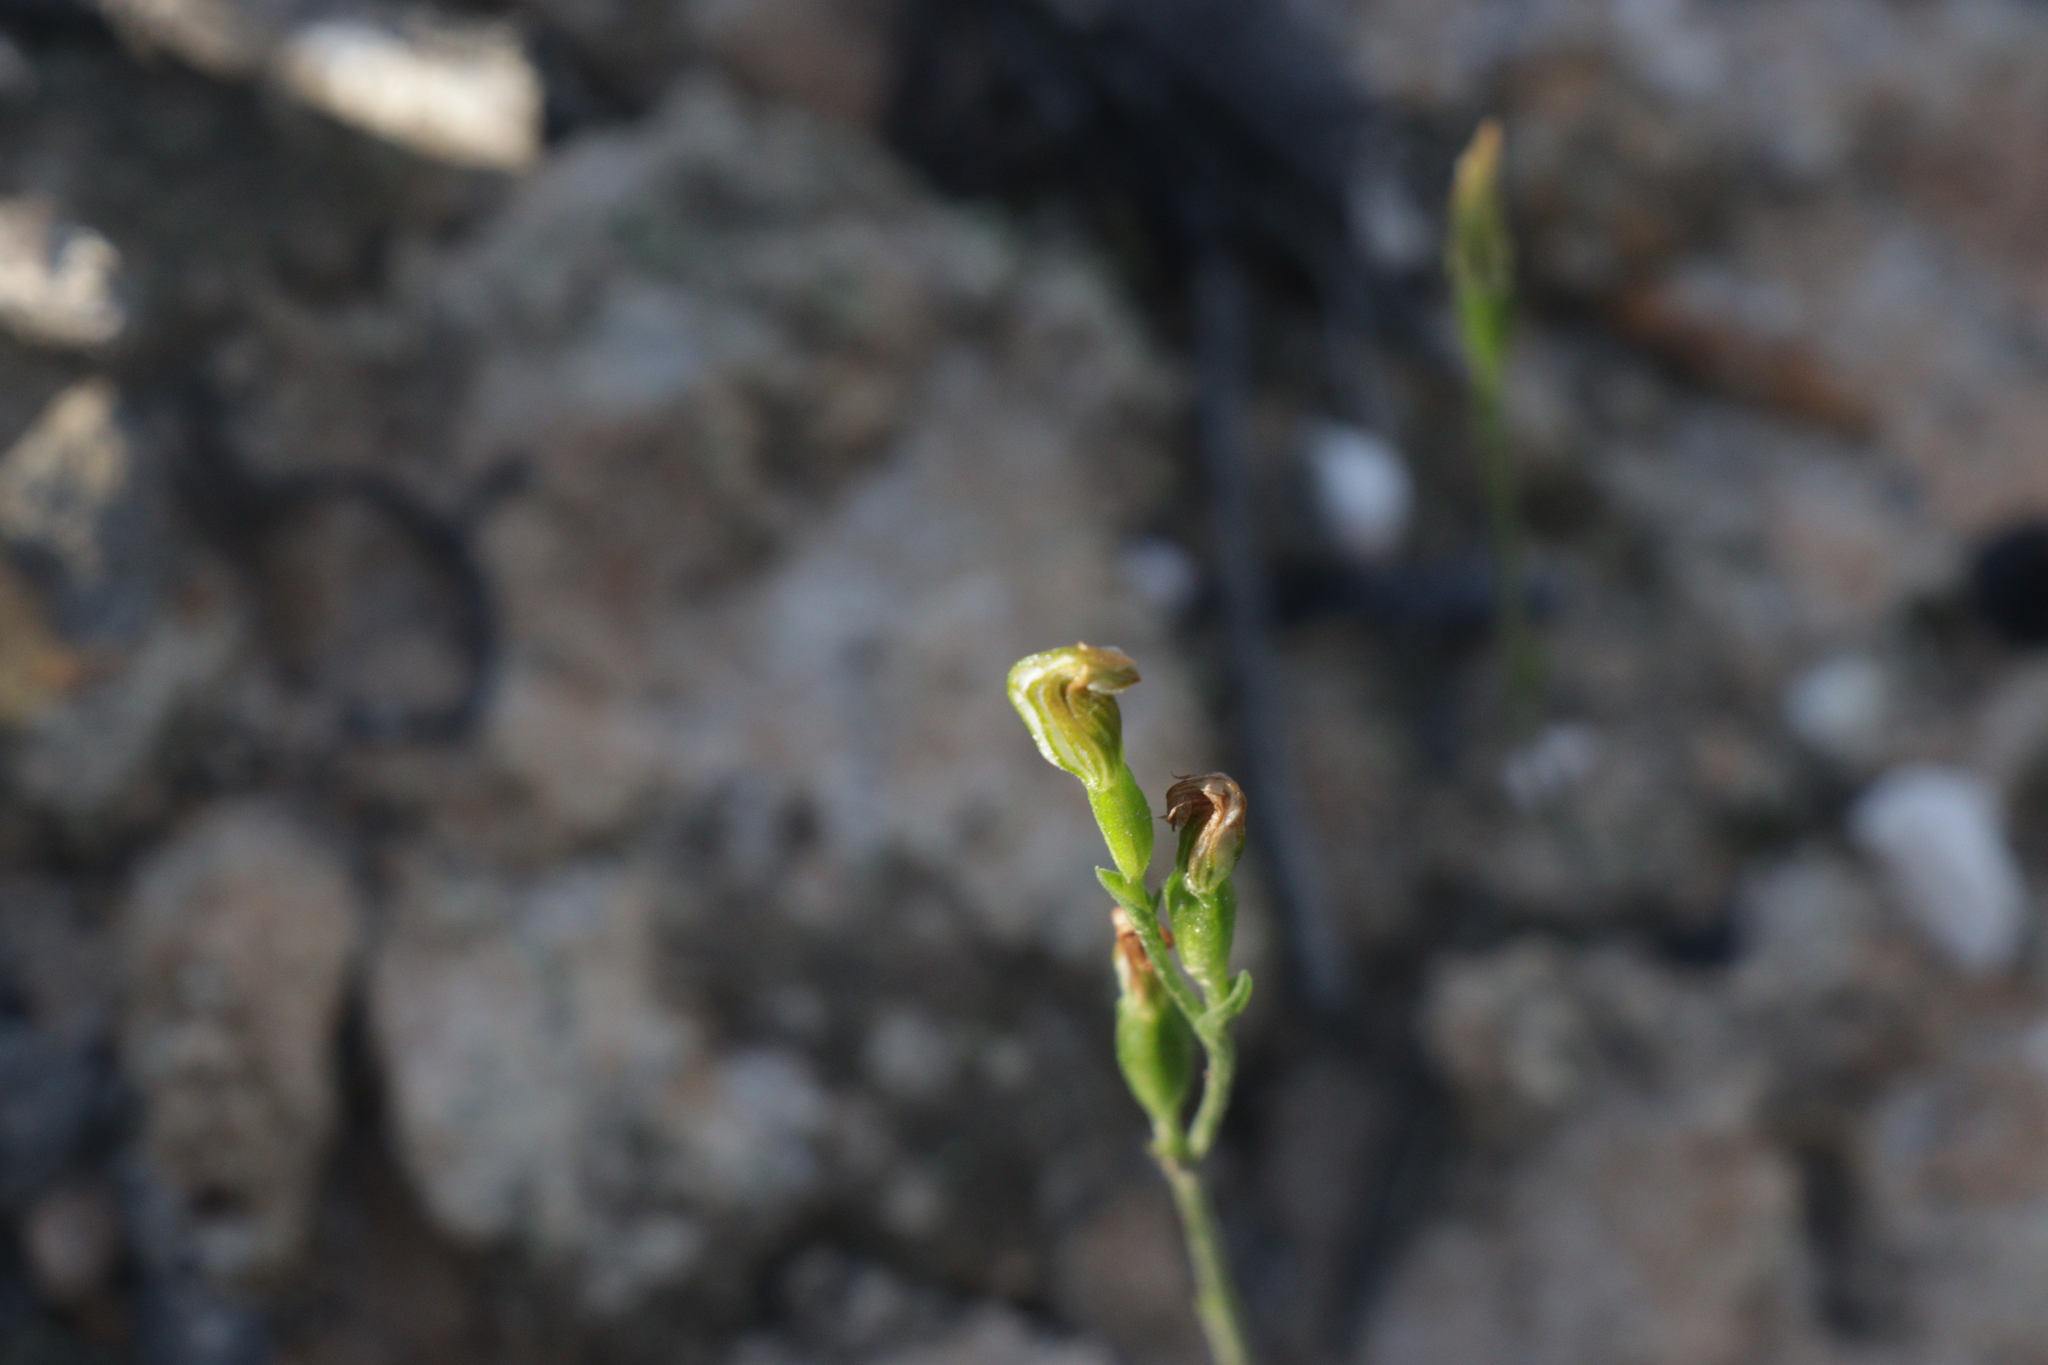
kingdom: Plantae
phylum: Tracheophyta
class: Liliopsida
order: Asparagales
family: Orchidaceae
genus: Pterostylis
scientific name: Pterostylis parviflora
